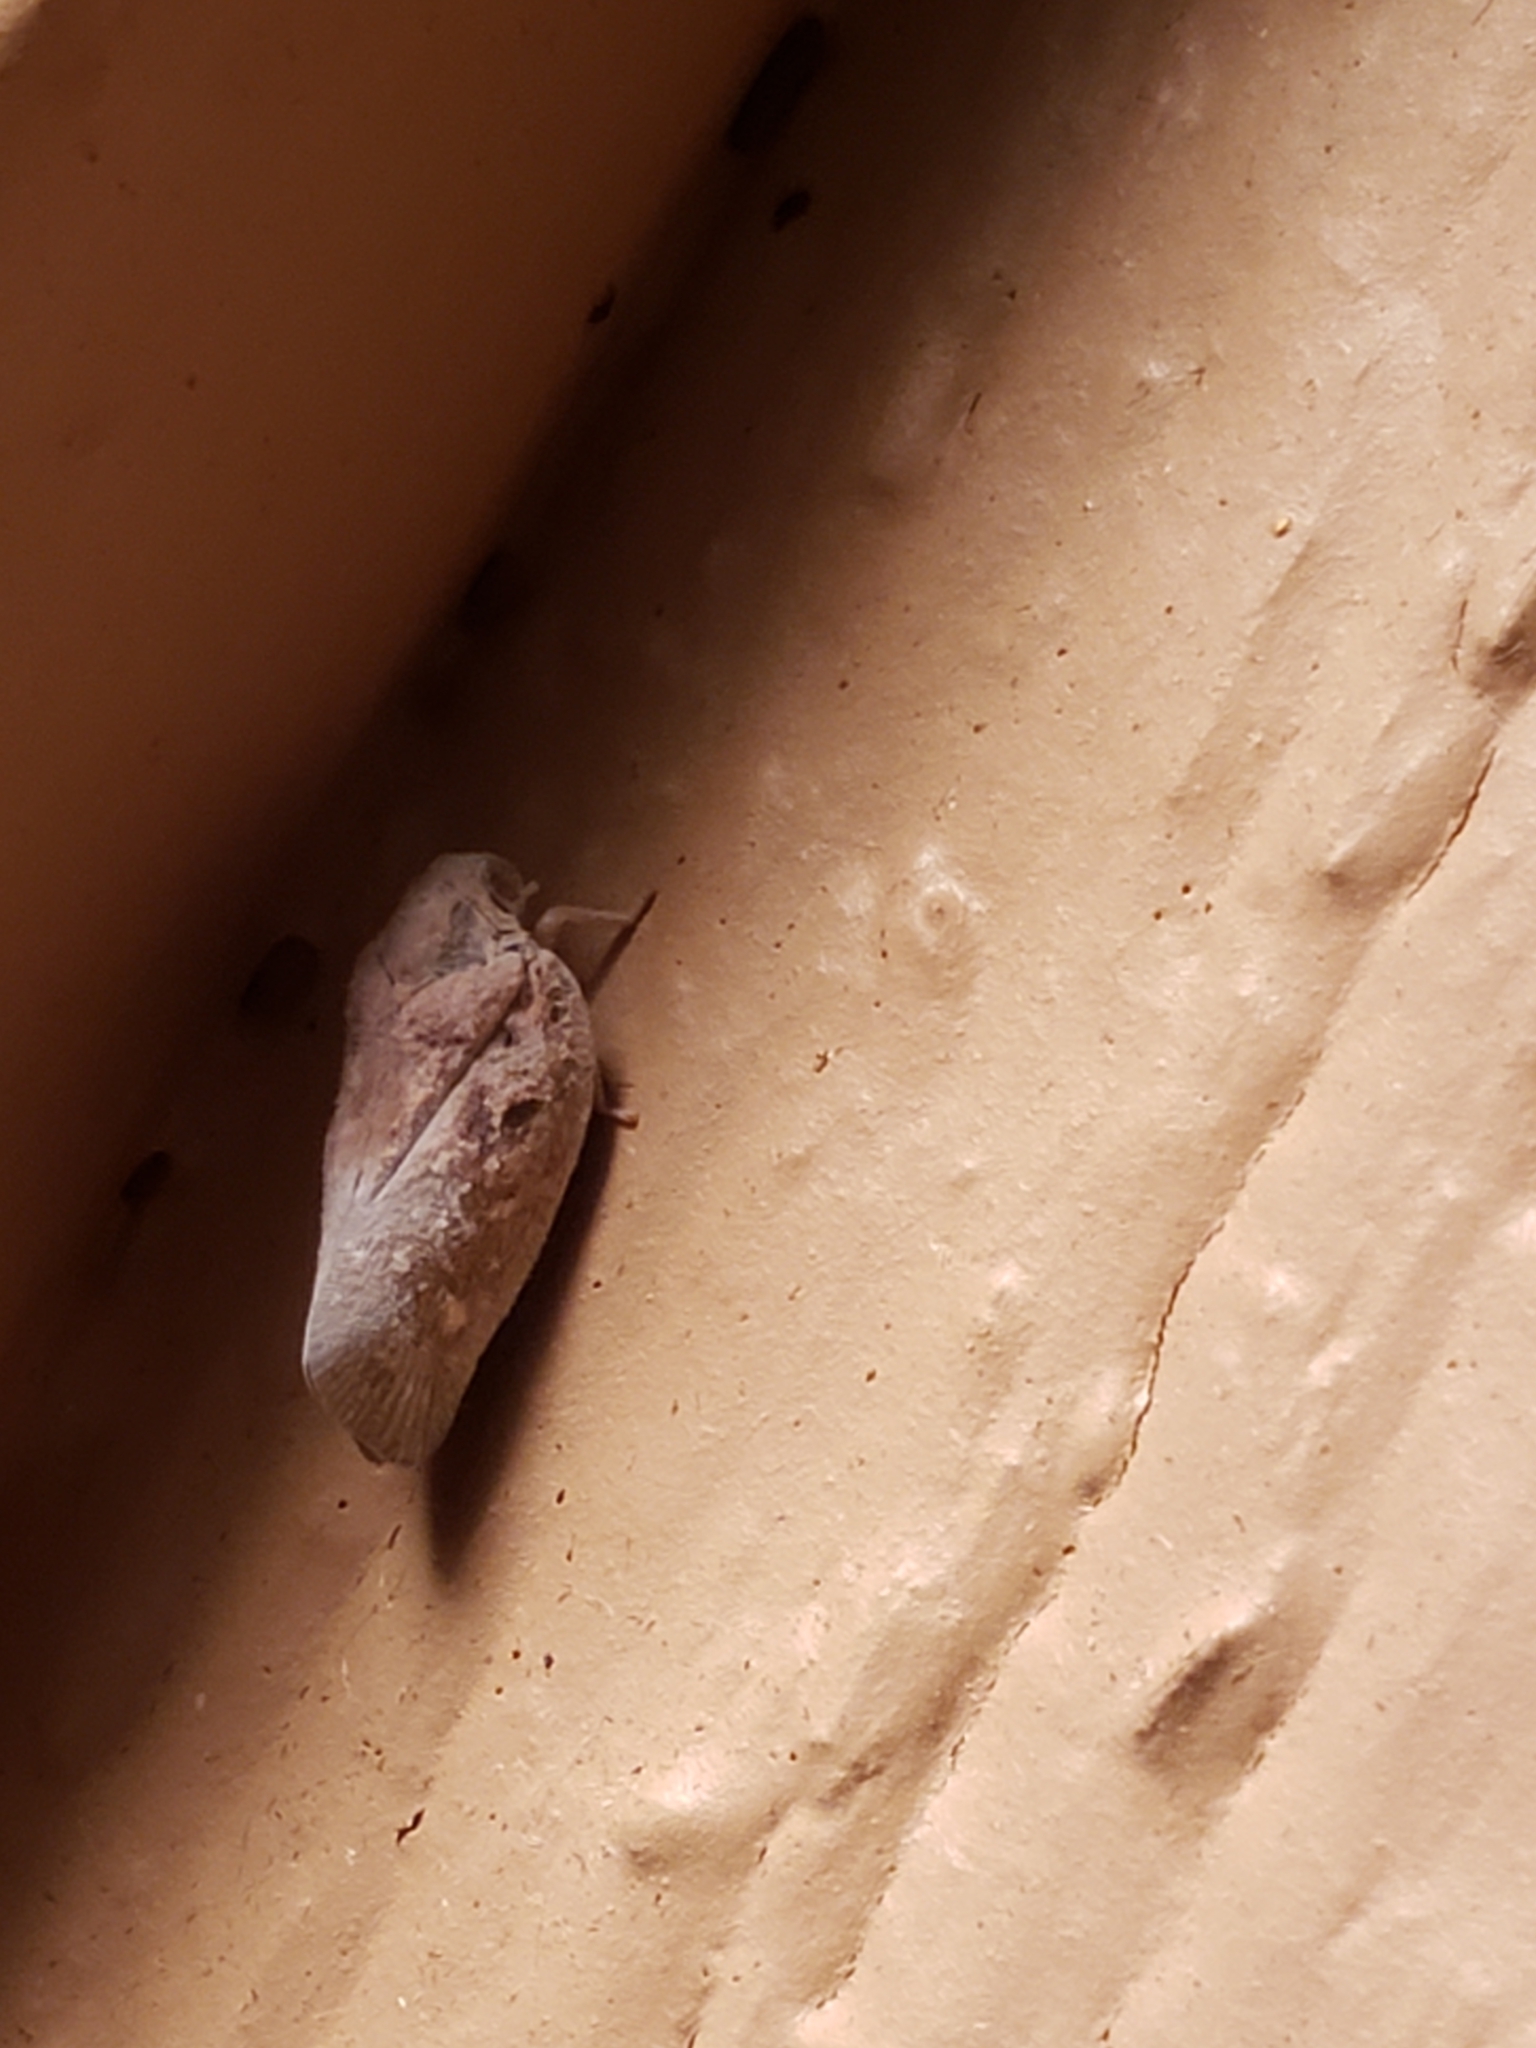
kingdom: Animalia
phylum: Arthropoda
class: Insecta
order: Hemiptera
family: Flatidae
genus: Metcalfa
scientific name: Metcalfa pruinosa
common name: Citrus flatid planthopper
